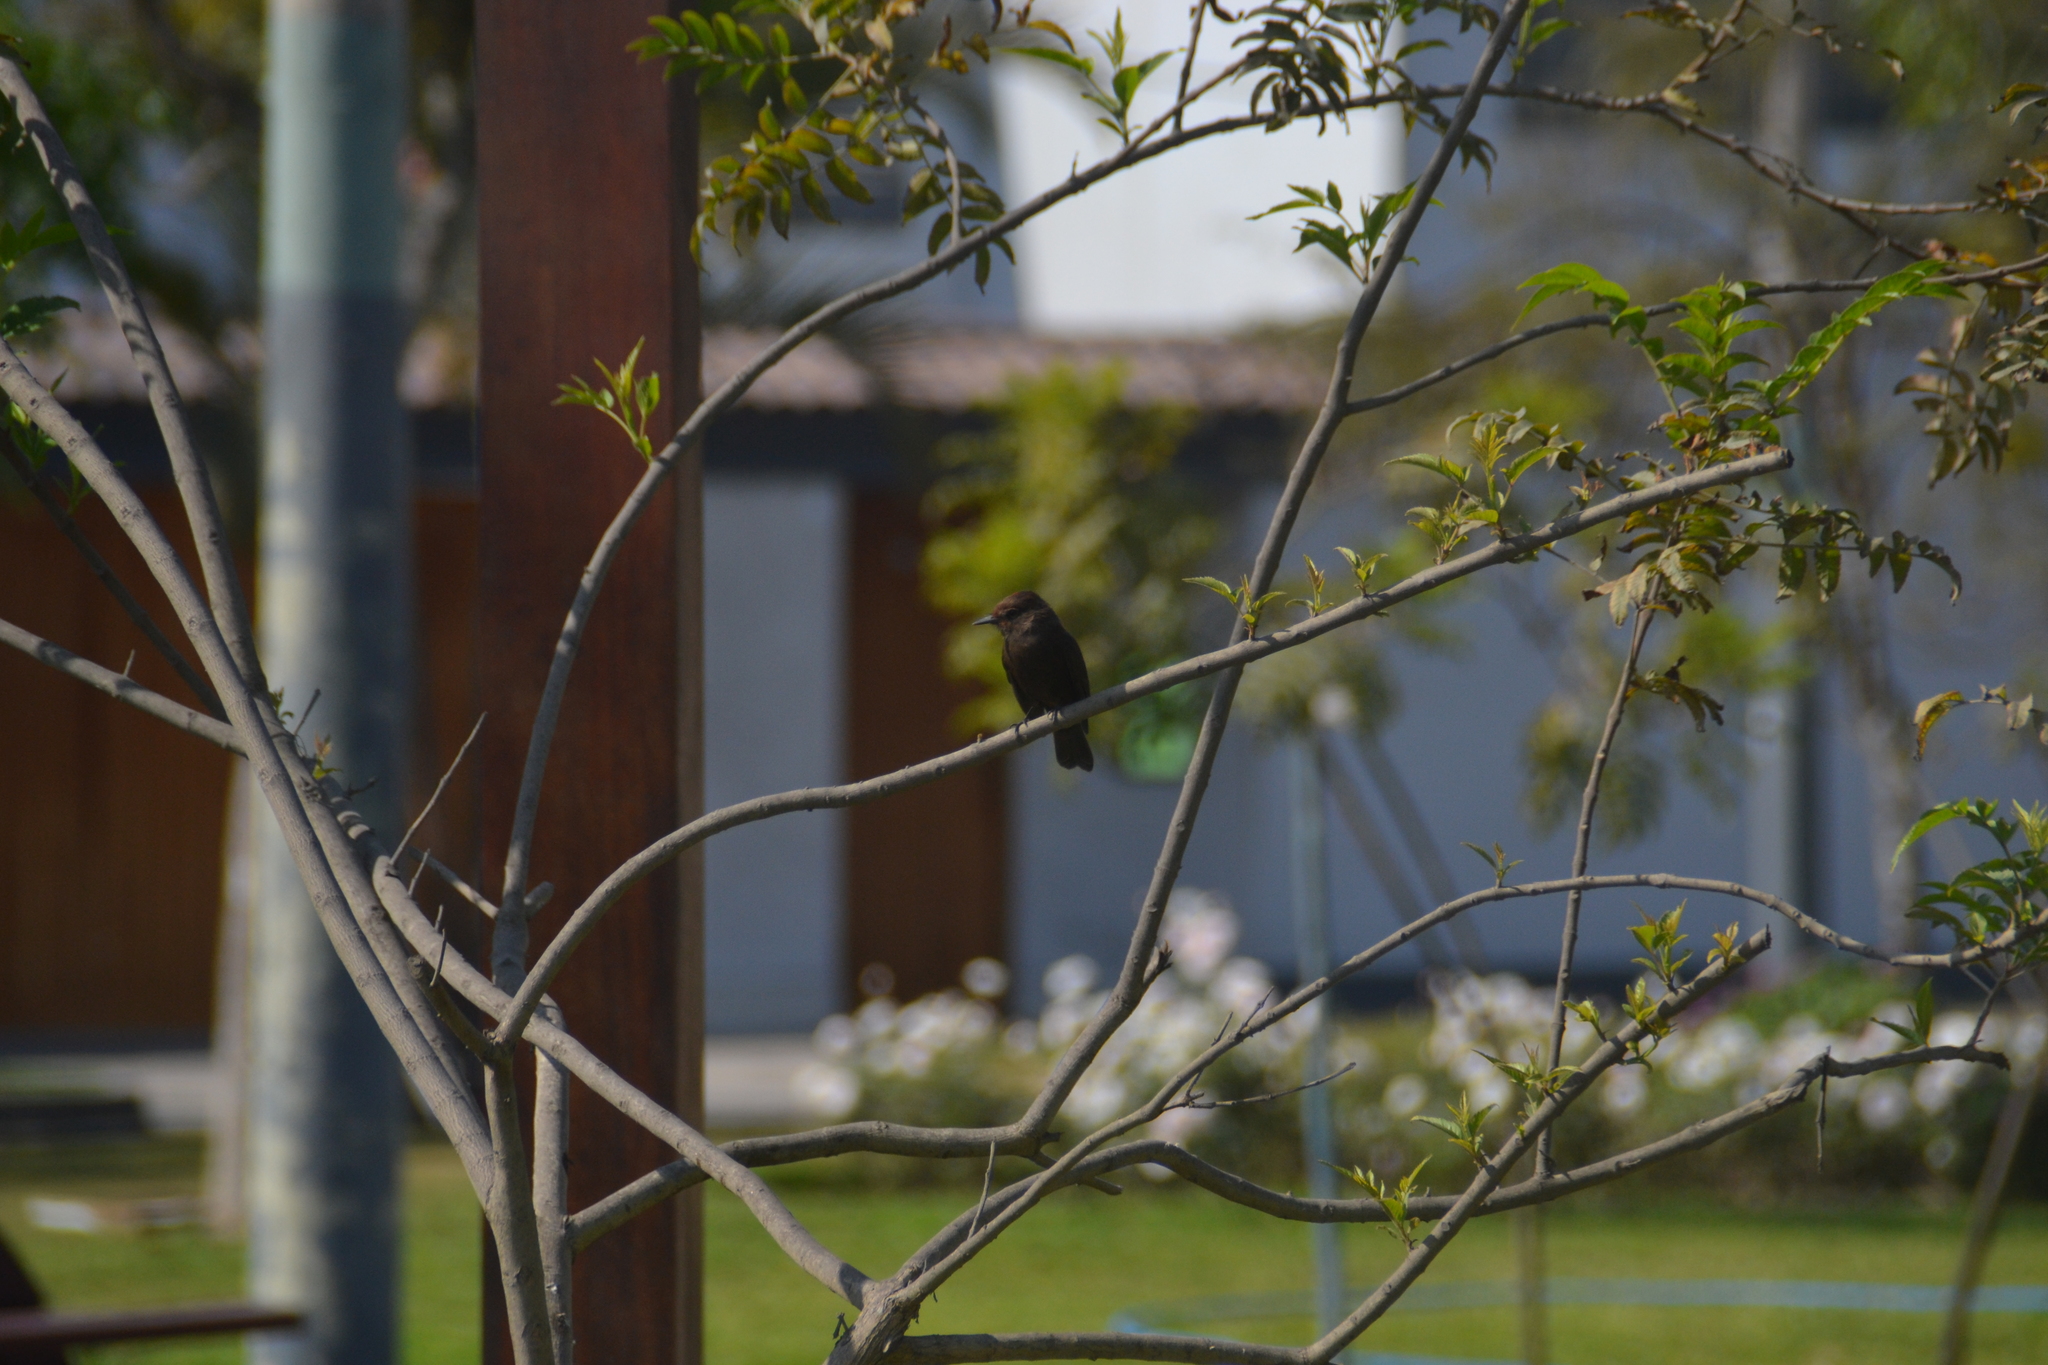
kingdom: Animalia
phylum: Chordata
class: Aves
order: Passeriformes
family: Tyrannidae
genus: Pyrocephalus
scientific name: Pyrocephalus rubinus
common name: Vermilion flycatcher
